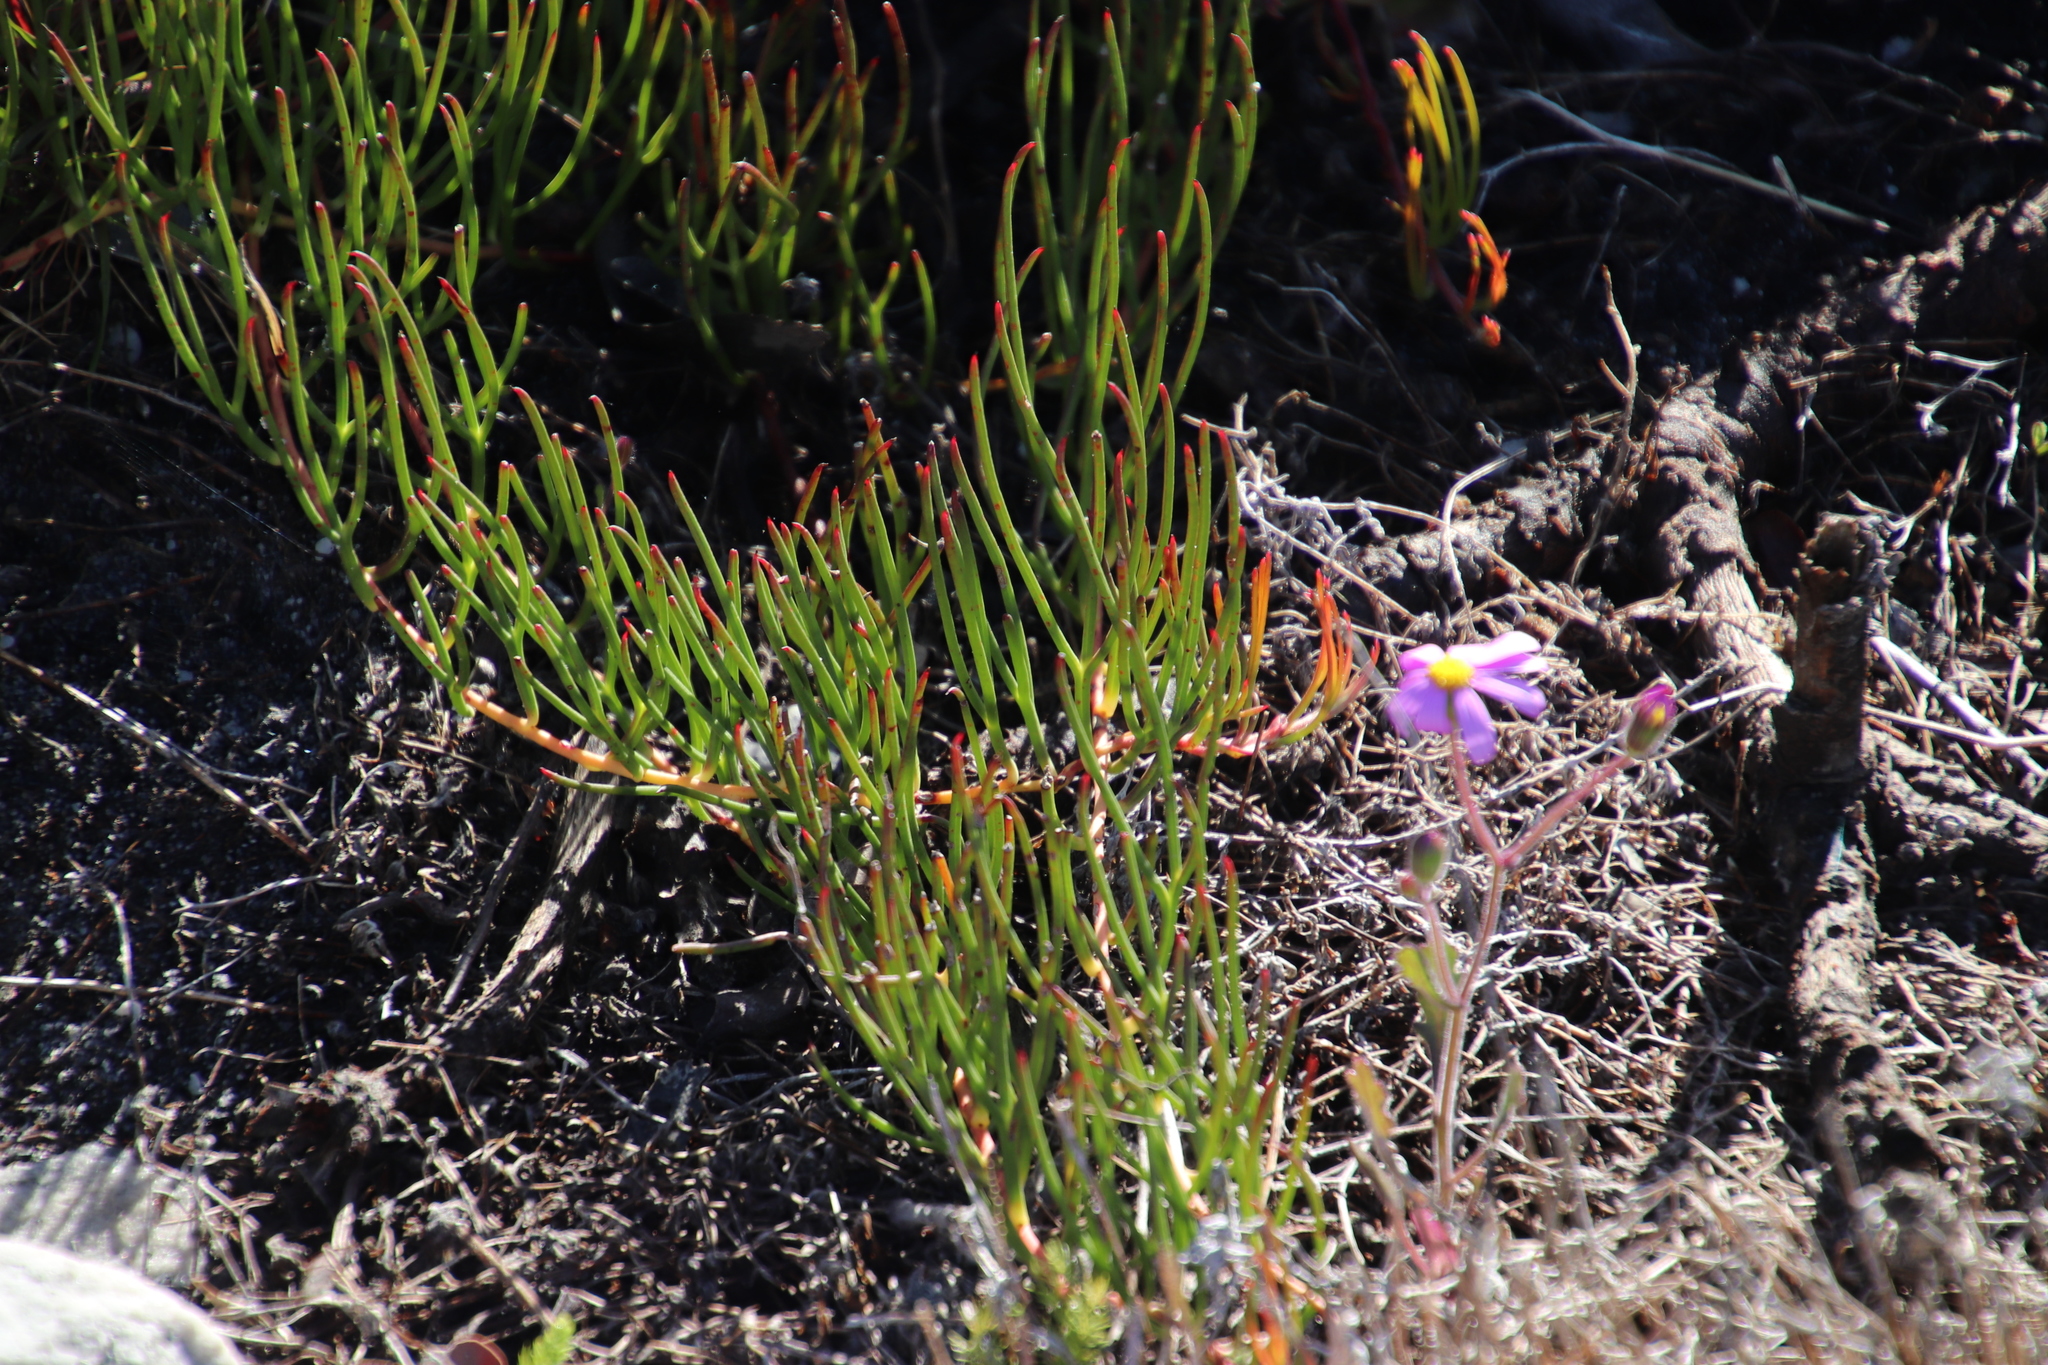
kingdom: Plantae
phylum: Tracheophyta
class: Magnoliopsida
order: Proteales
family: Proteaceae
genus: Serruria
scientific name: Serruria decumbens
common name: Peninsula spiderhead
